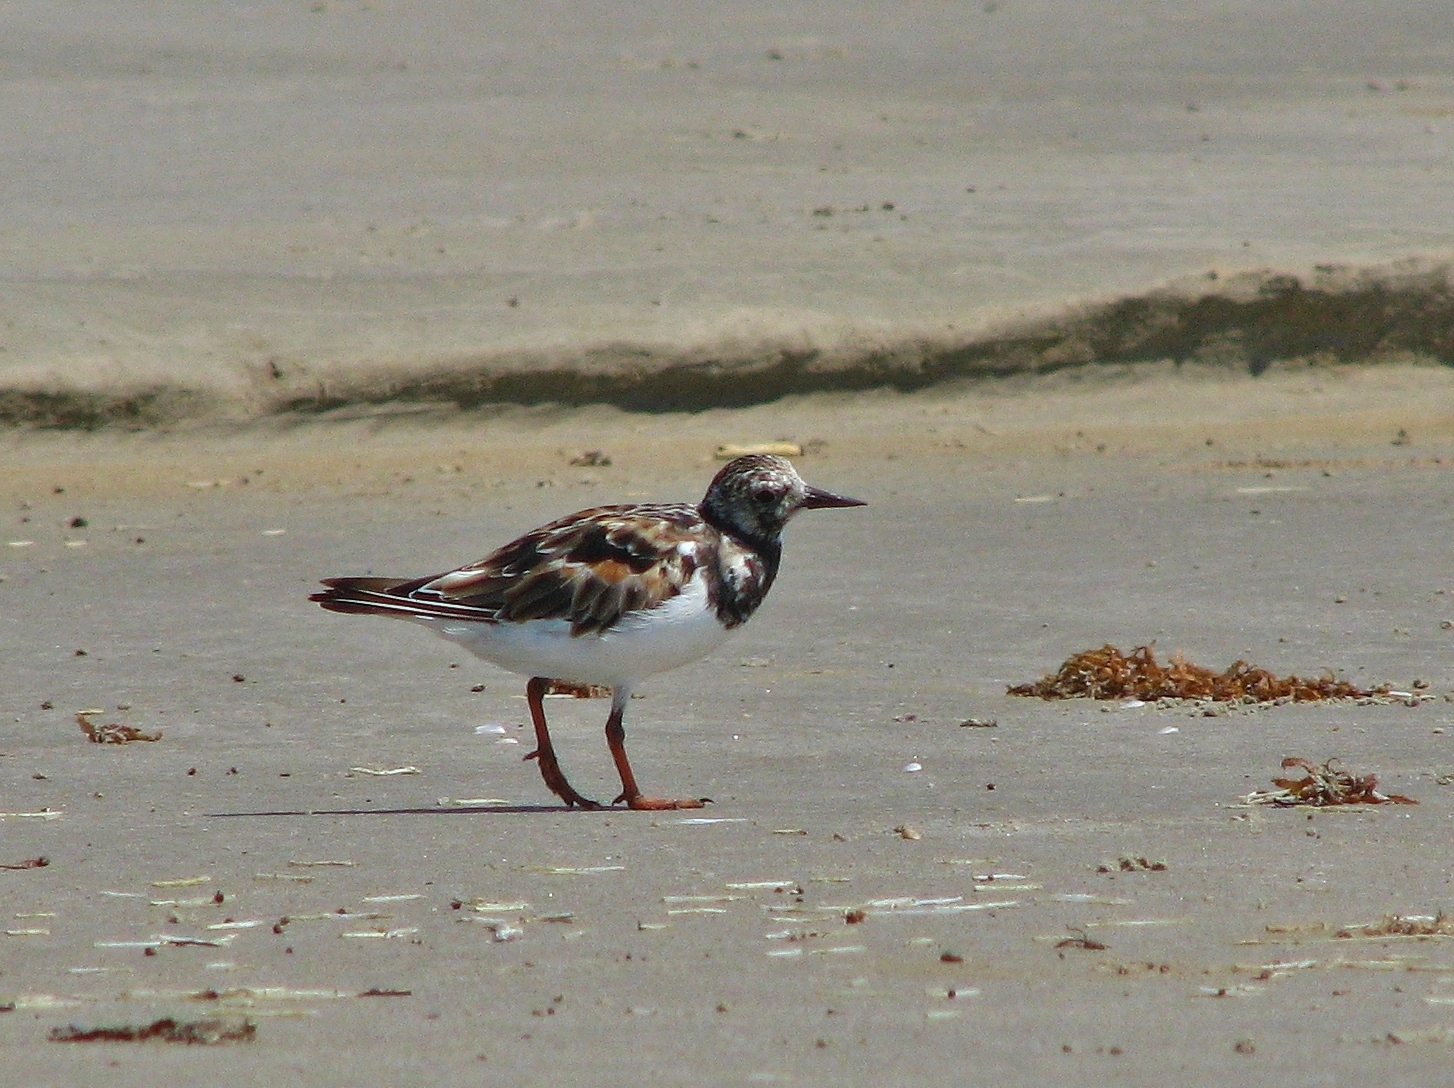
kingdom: Animalia
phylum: Chordata
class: Aves
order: Charadriiformes
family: Scolopacidae
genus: Arenaria
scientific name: Arenaria interpres
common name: Ruddy turnstone
